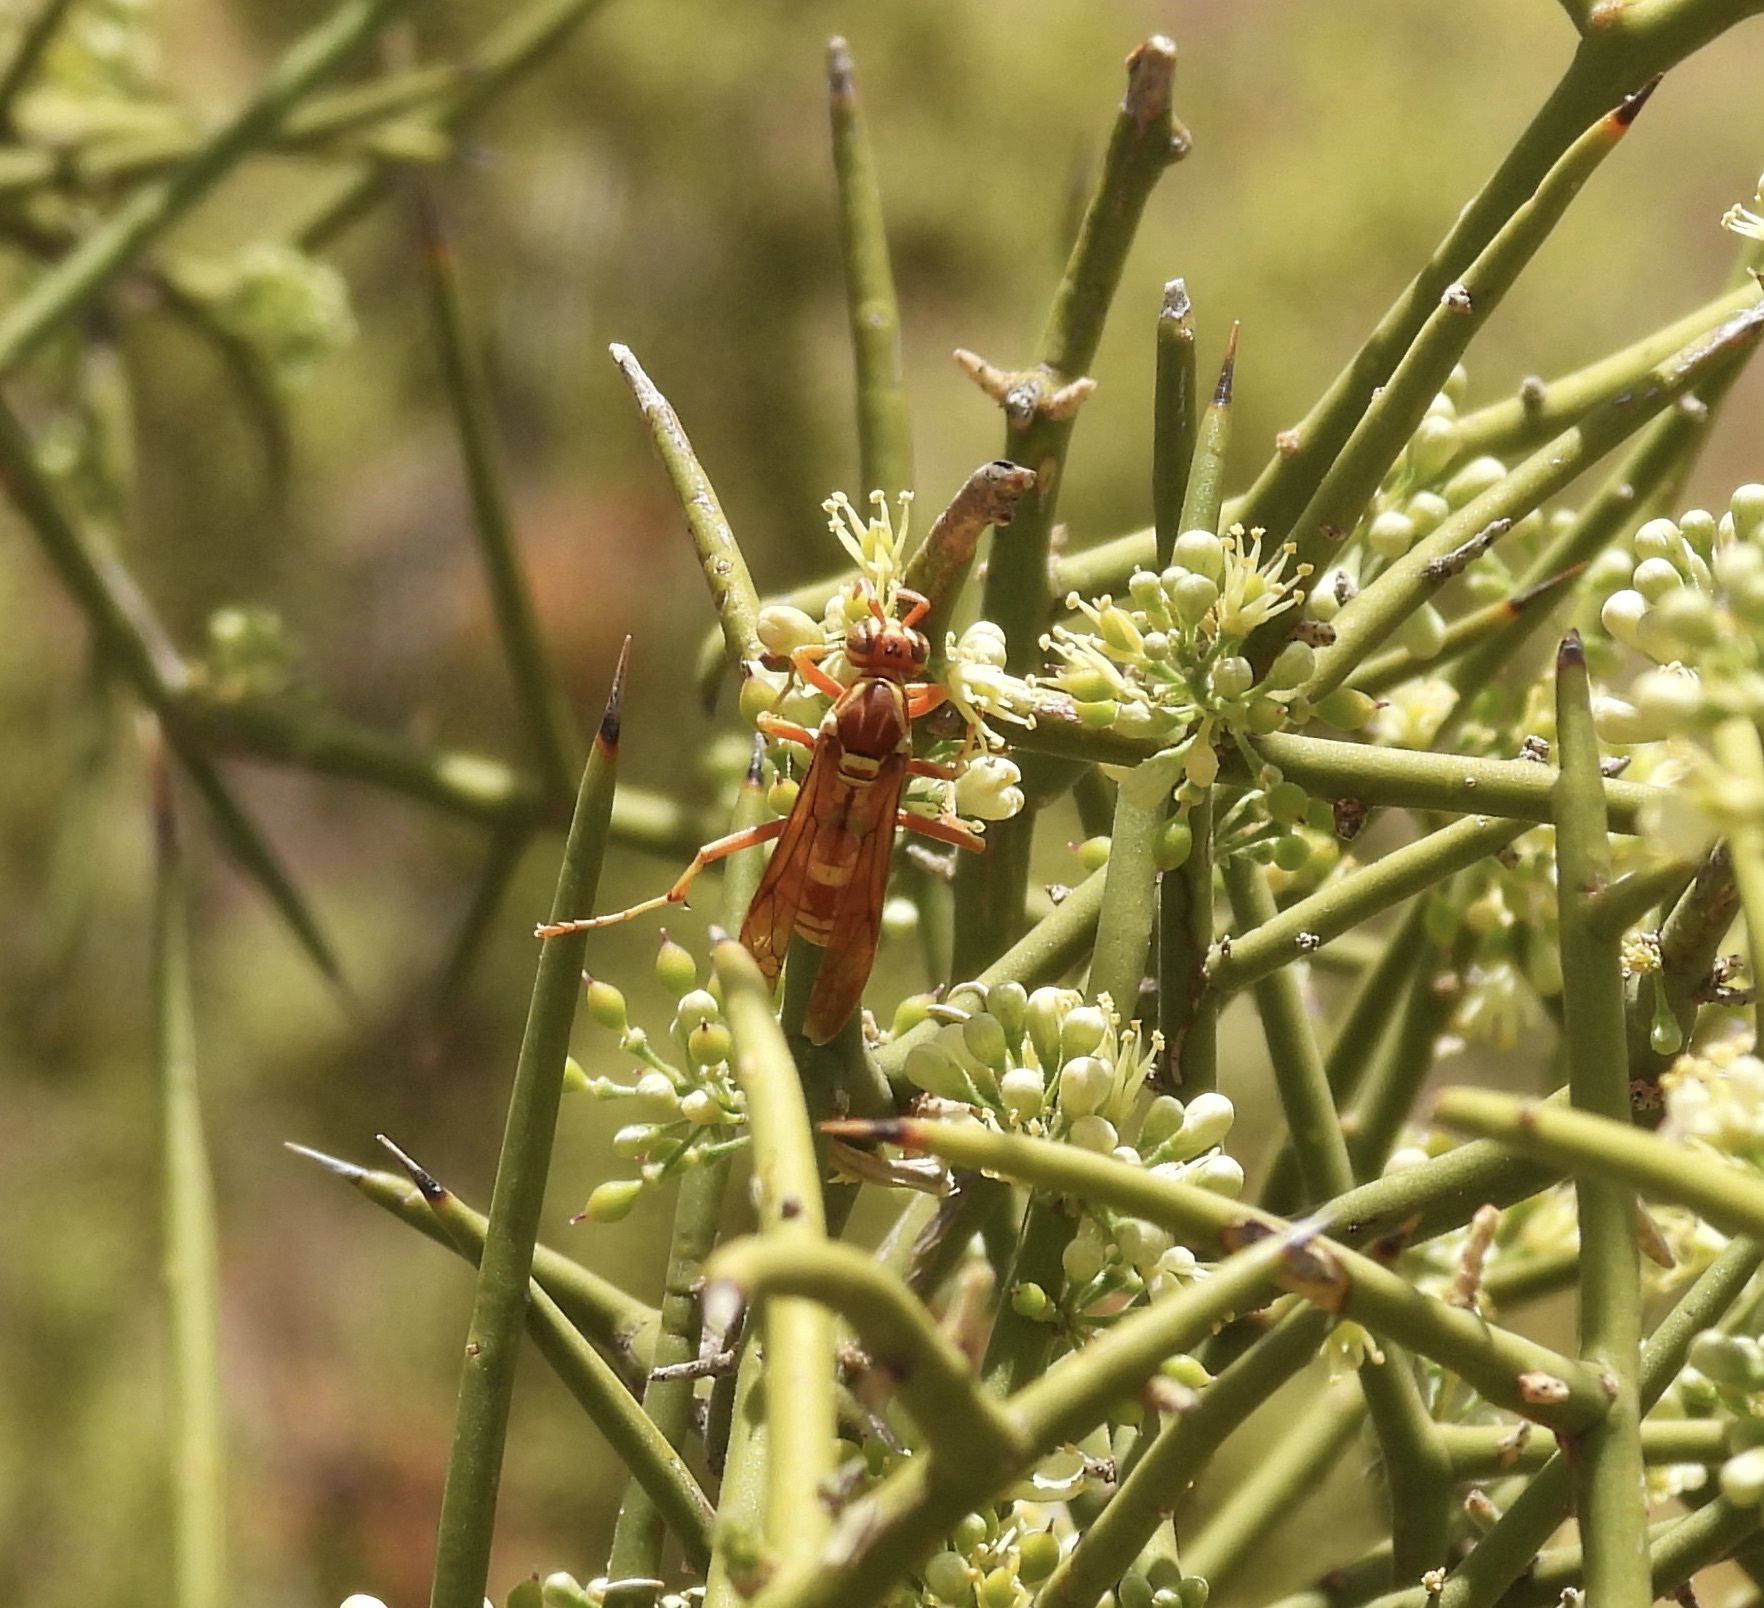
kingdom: Animalia
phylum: Arthropoda
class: Insecta
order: Hymenoptera
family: Eumenidae
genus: Polistes
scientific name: Polistes apachus
